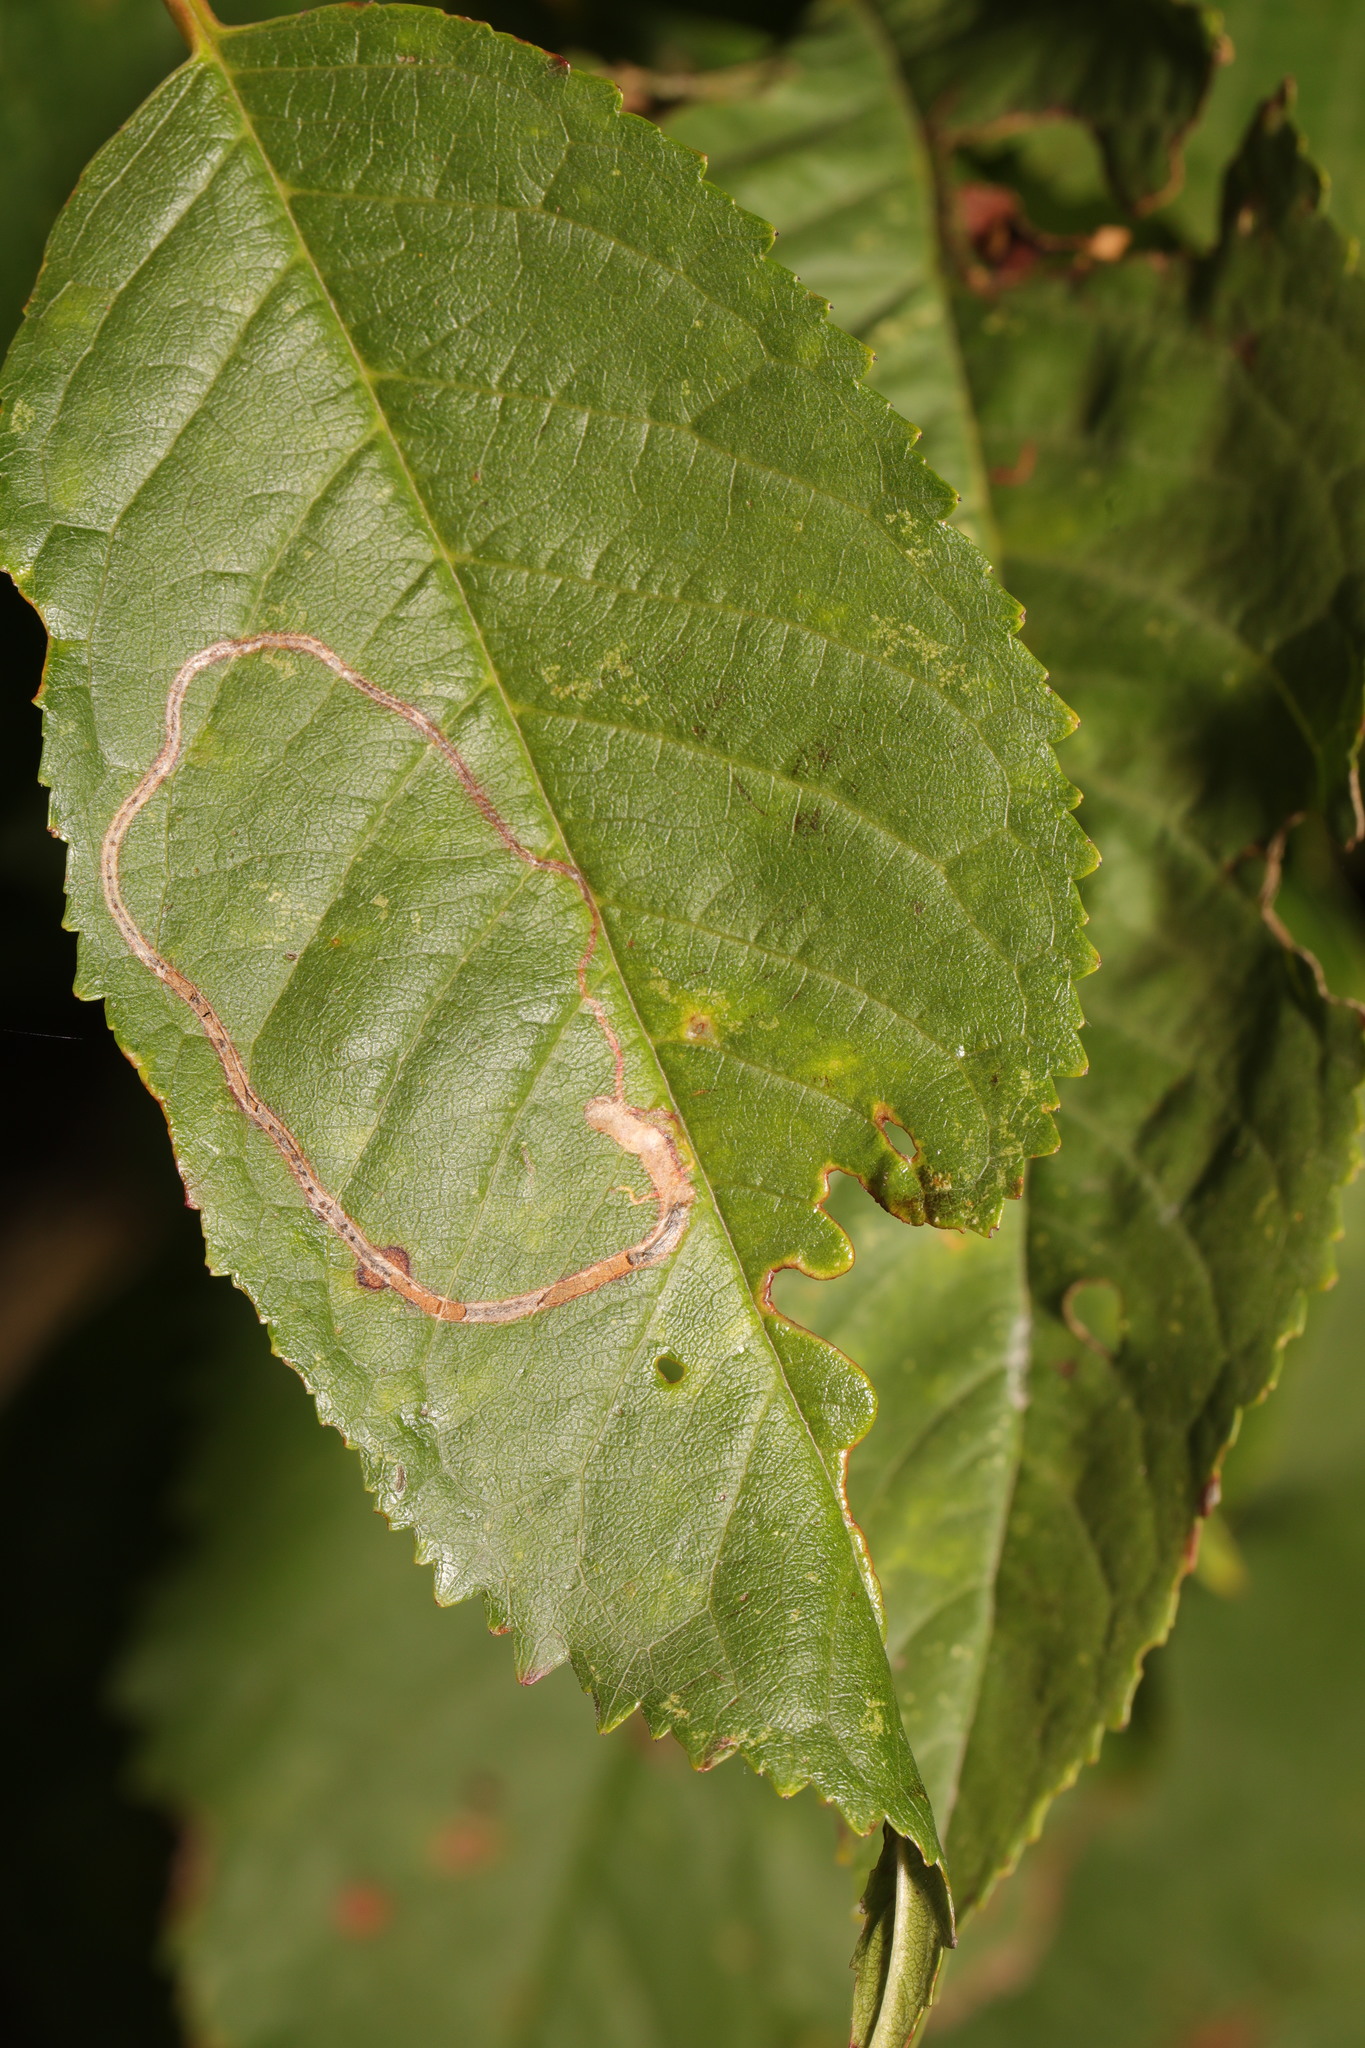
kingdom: Animalia
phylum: Arthropoda
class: Insecta
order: Lepidoptera
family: Lyonetiidae
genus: Lyonetia
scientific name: Lyonetia clerkella
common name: Apple leaf miner
